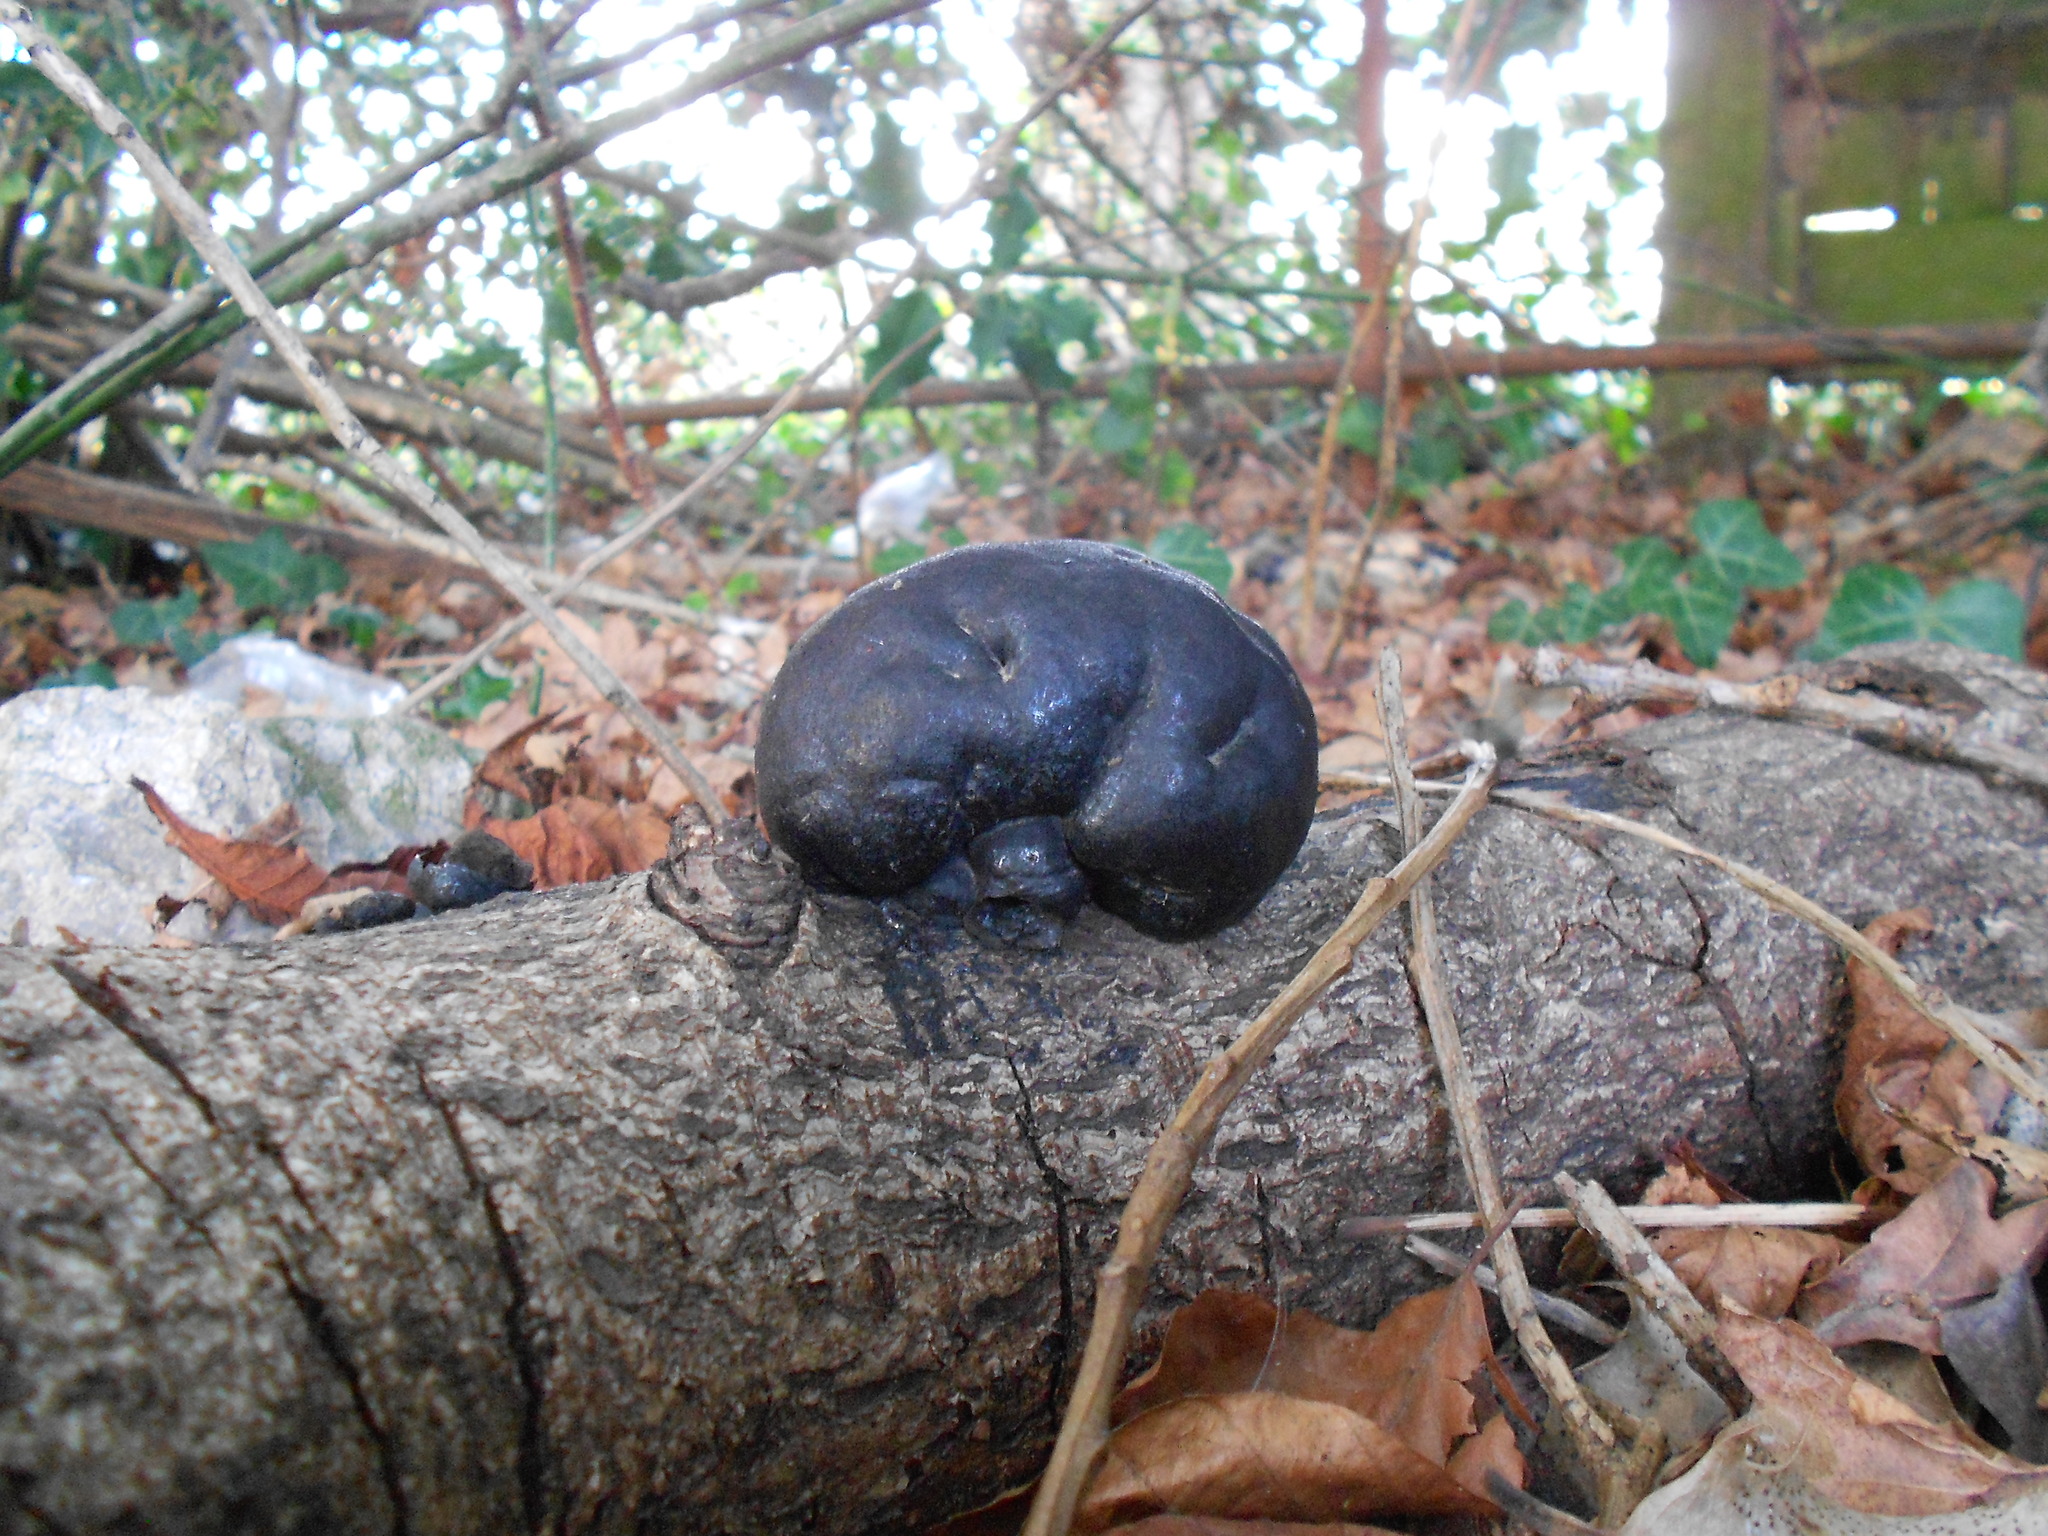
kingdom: Fungi
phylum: Ascomycota
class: Sordariomycetes
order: Xylariales
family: Hypoxylaceae
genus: Daldinia
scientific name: Daldinia concentrica
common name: Cramp balls
